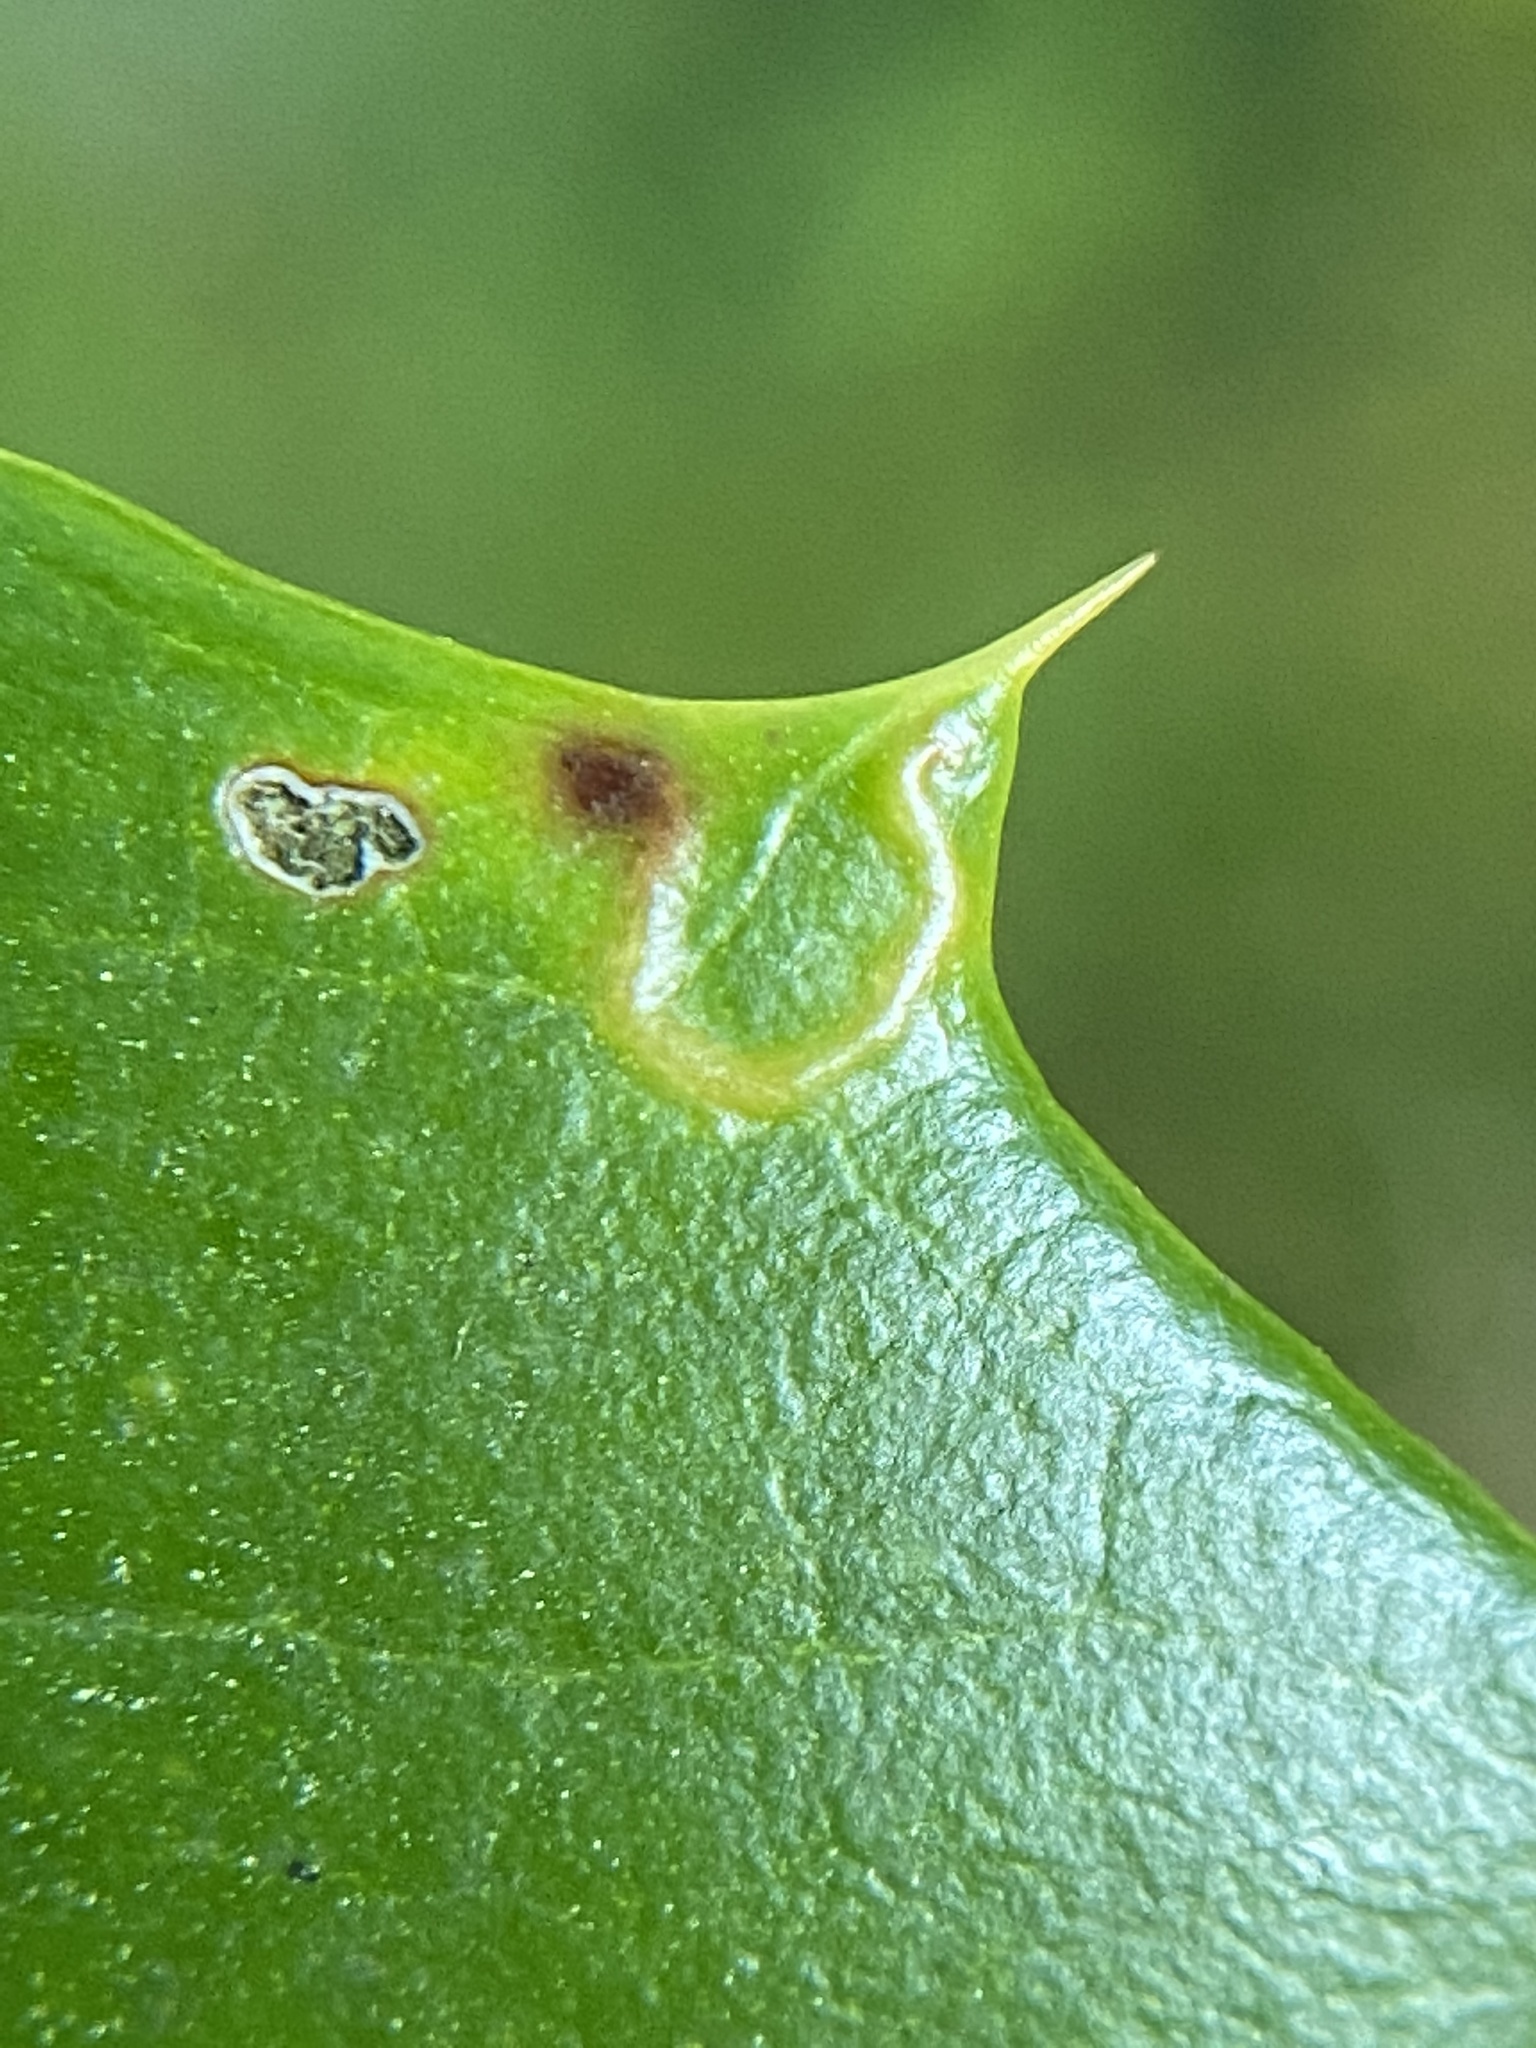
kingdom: Animalia
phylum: Arthropoda
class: Insecta
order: Diptera
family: Agromyzidae
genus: Phytomyza
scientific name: Phytomyza ilicicola
